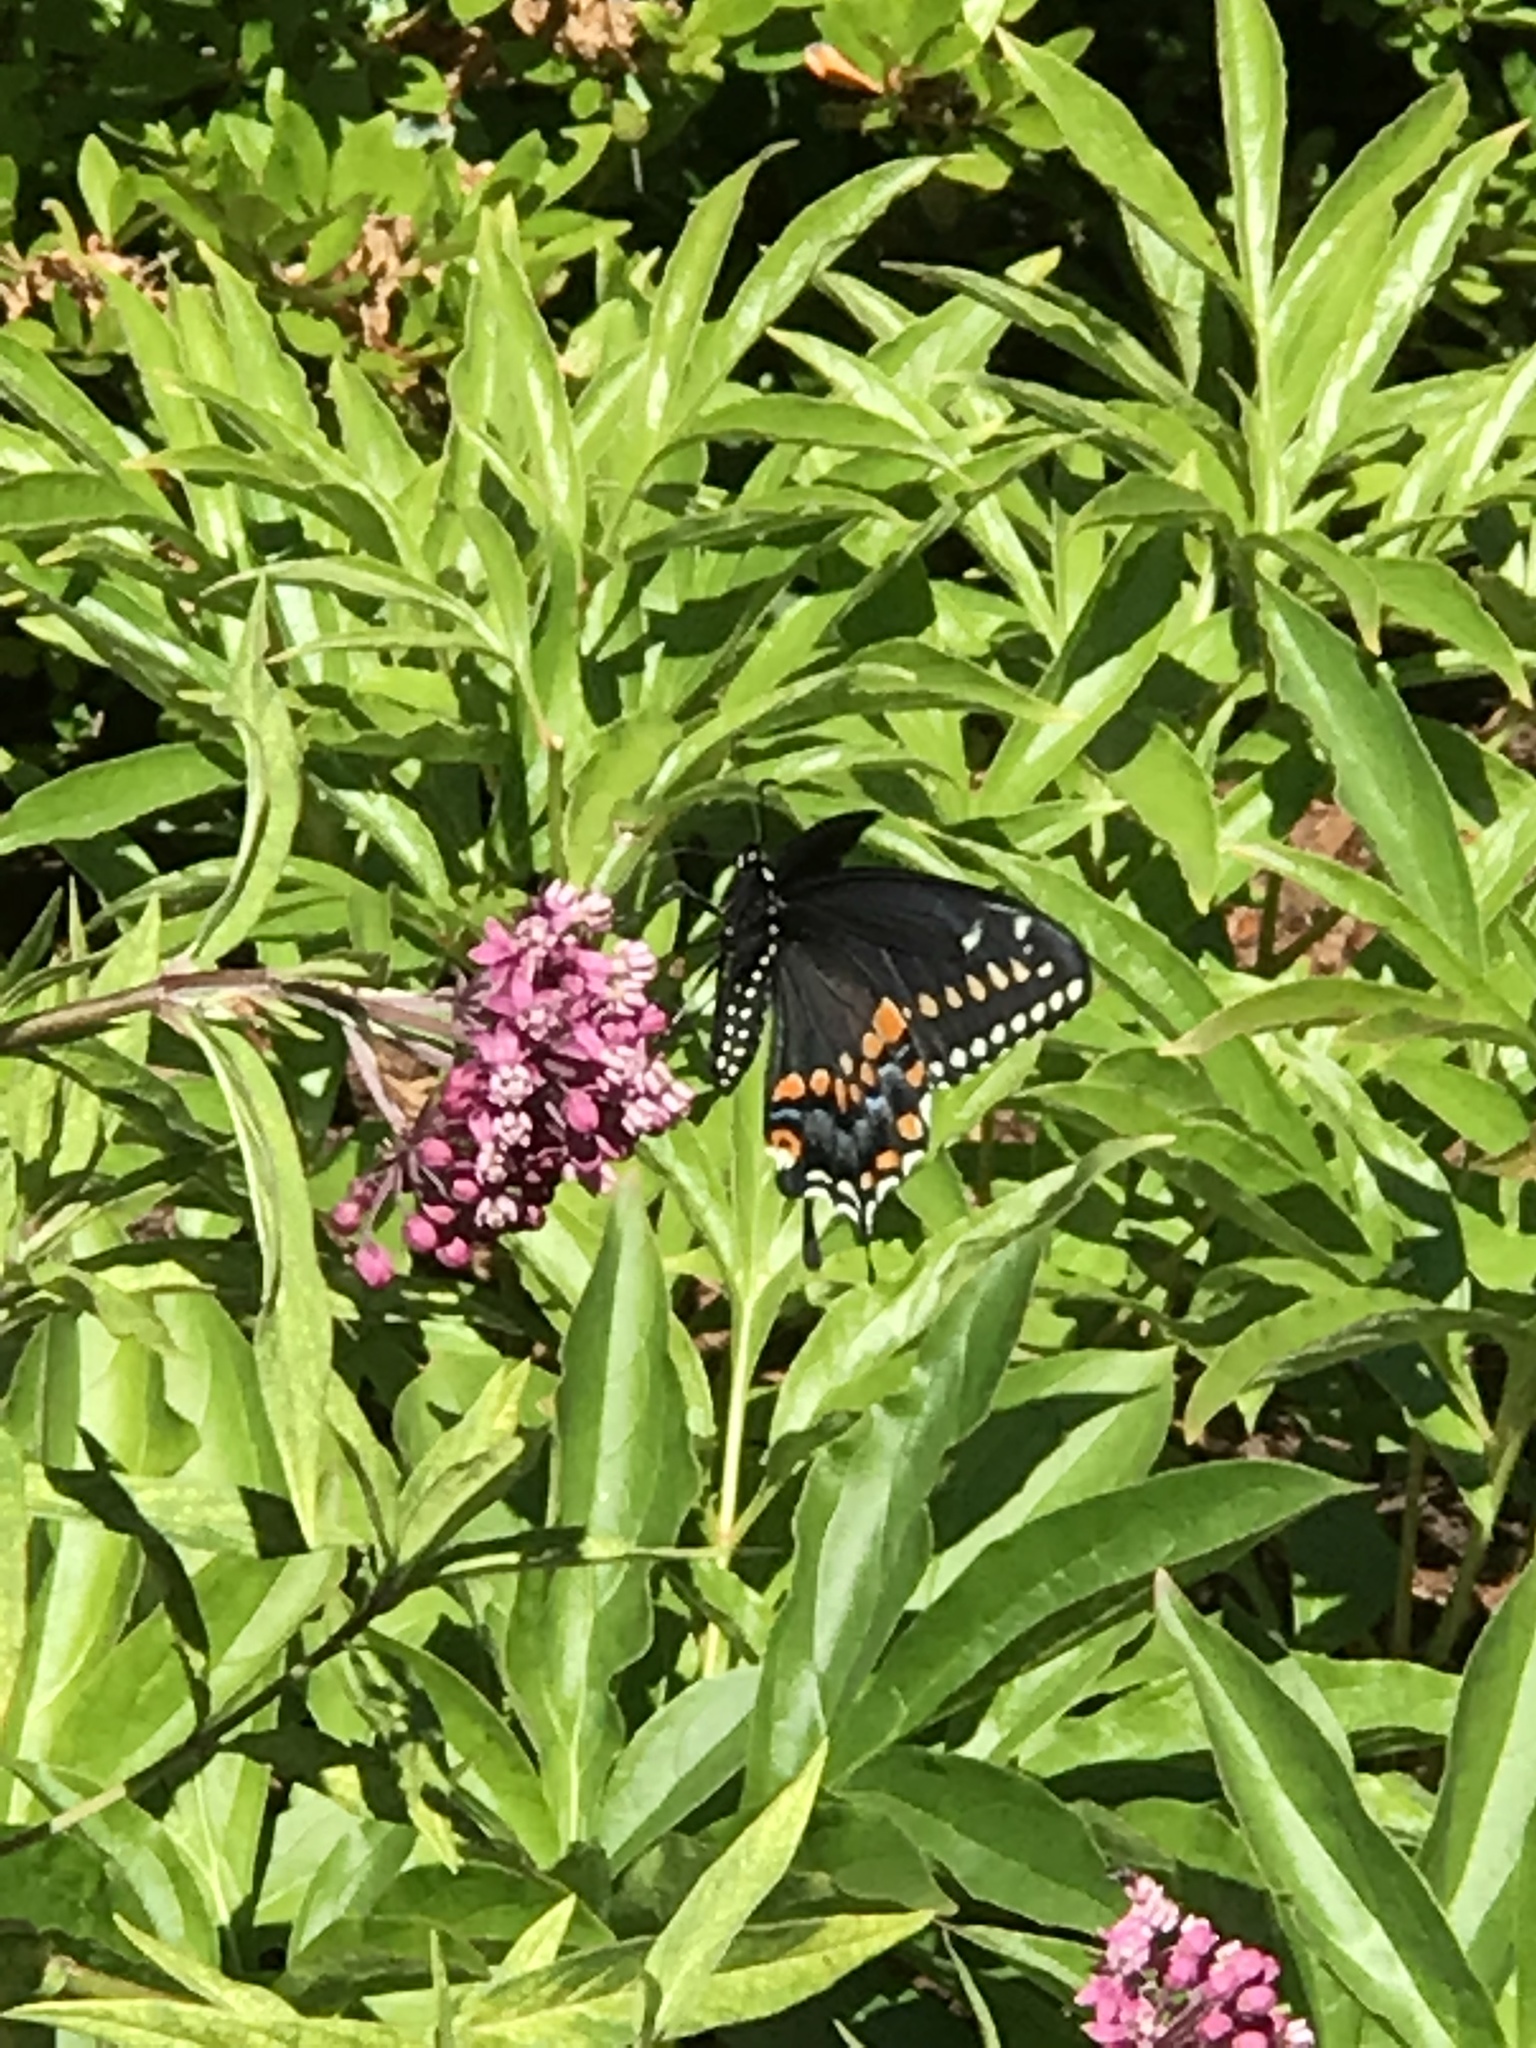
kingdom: Animalia
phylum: Arthropoda
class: Insecta
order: Lepidoptera
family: Papilionidae
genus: Papilio
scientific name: Papilio polyxenes
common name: Black swallowtail
